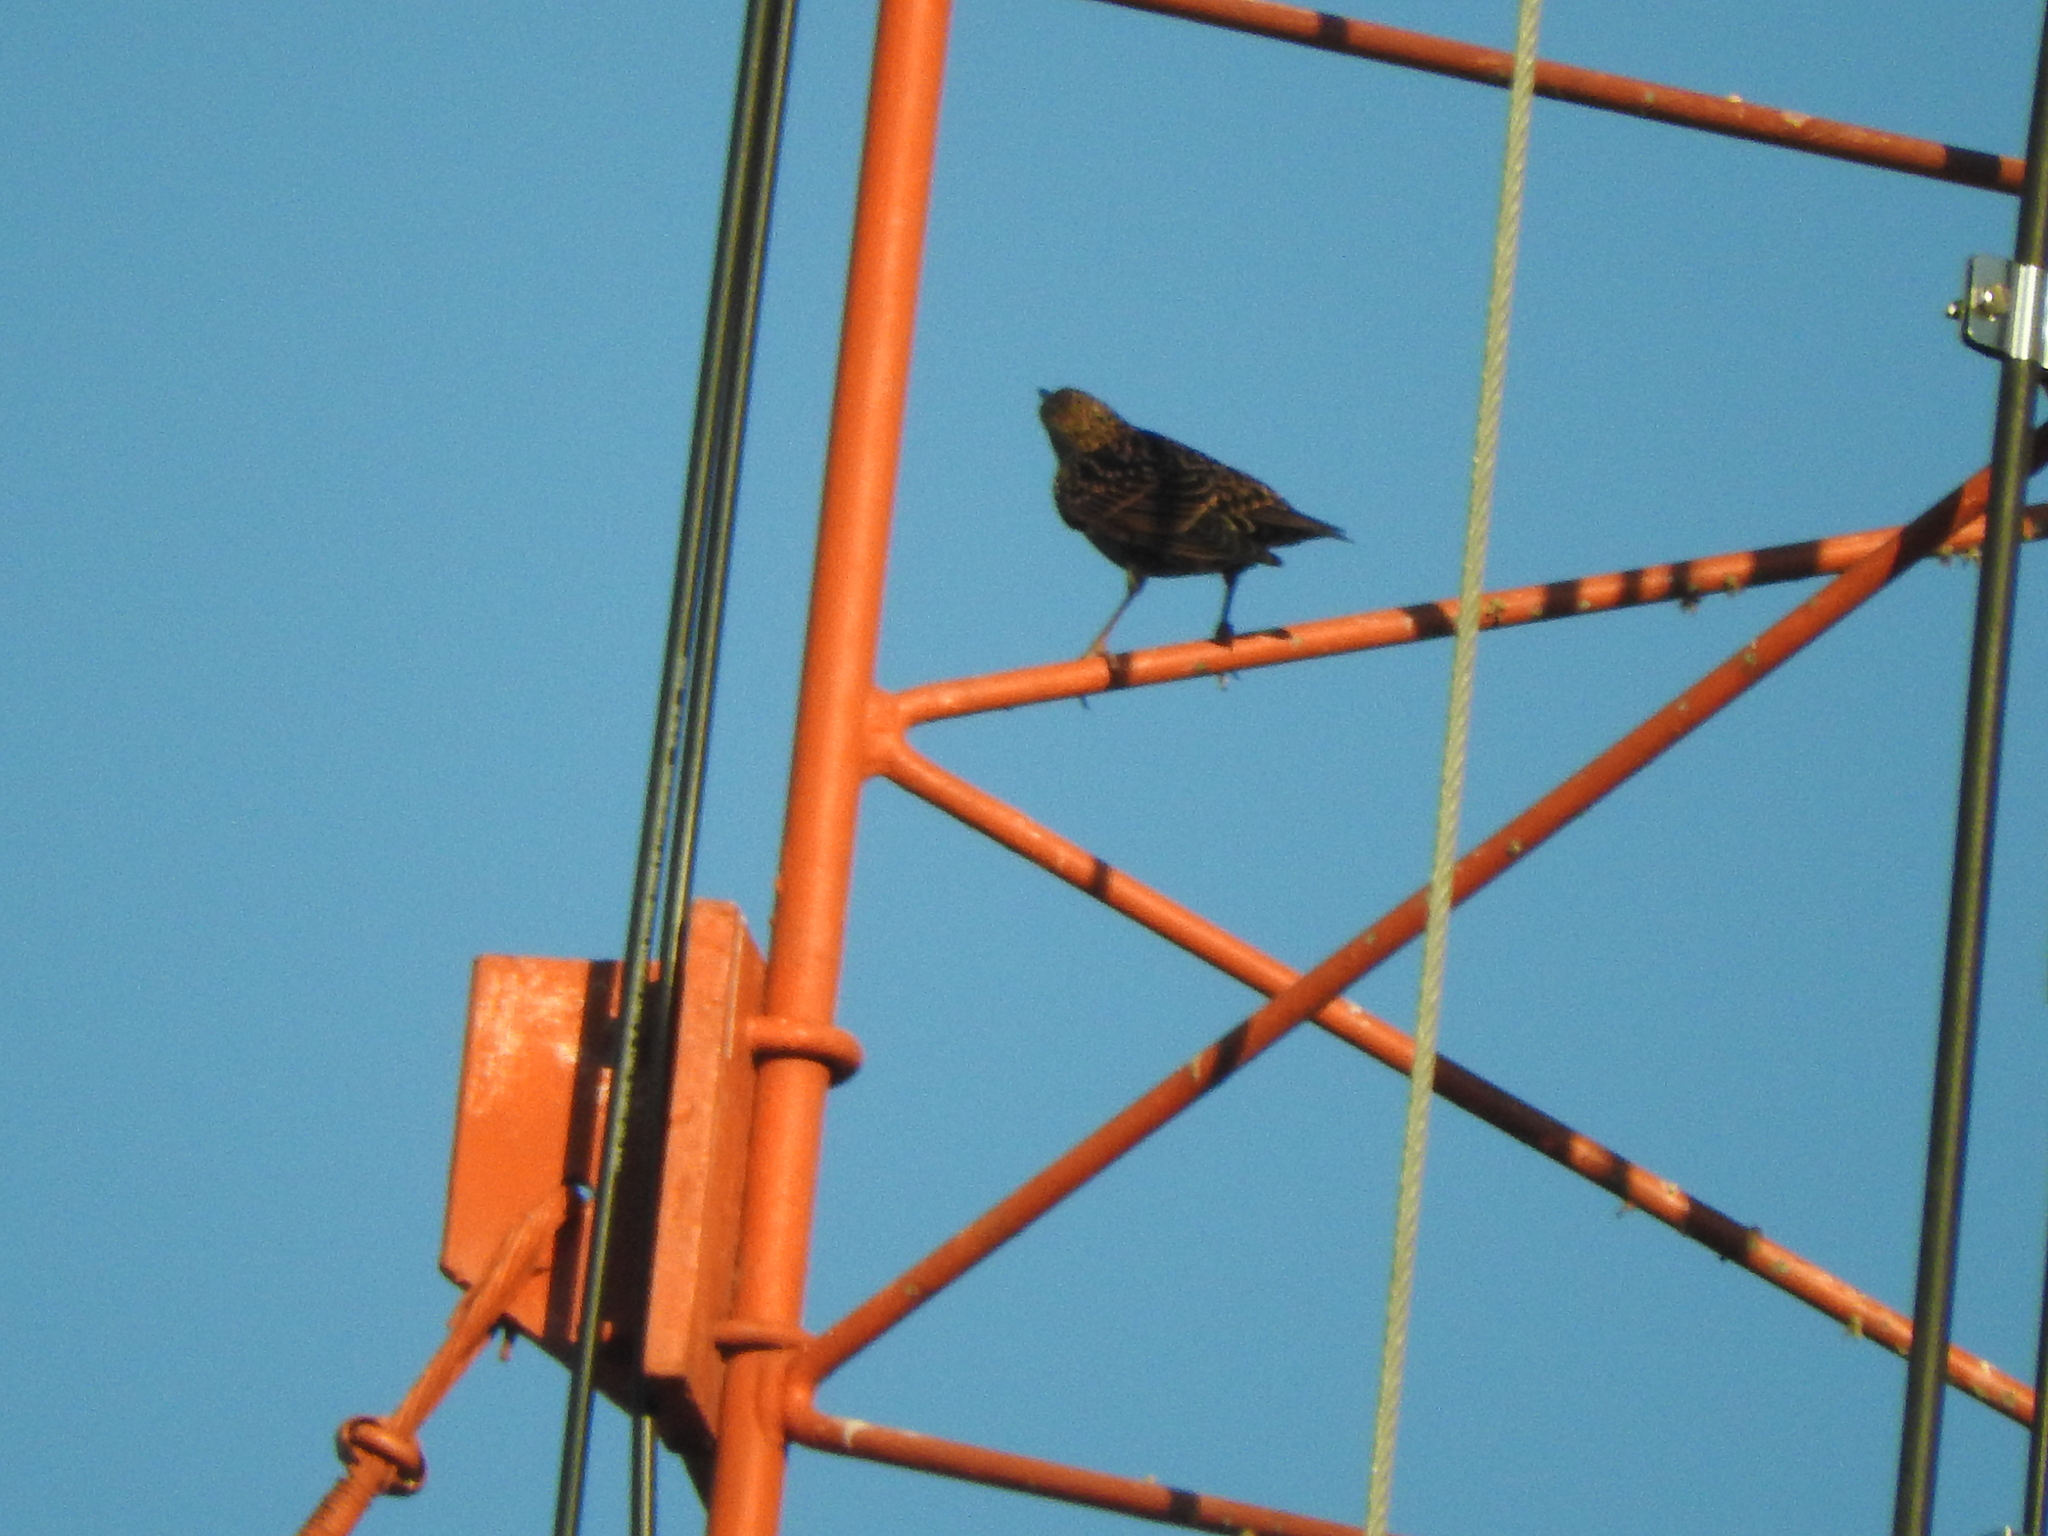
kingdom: Animalia
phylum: Chordata
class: Aves
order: Passeriformes
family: Sturnidae
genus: Sturnus
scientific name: Sturnus vulgaris
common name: Common starling
